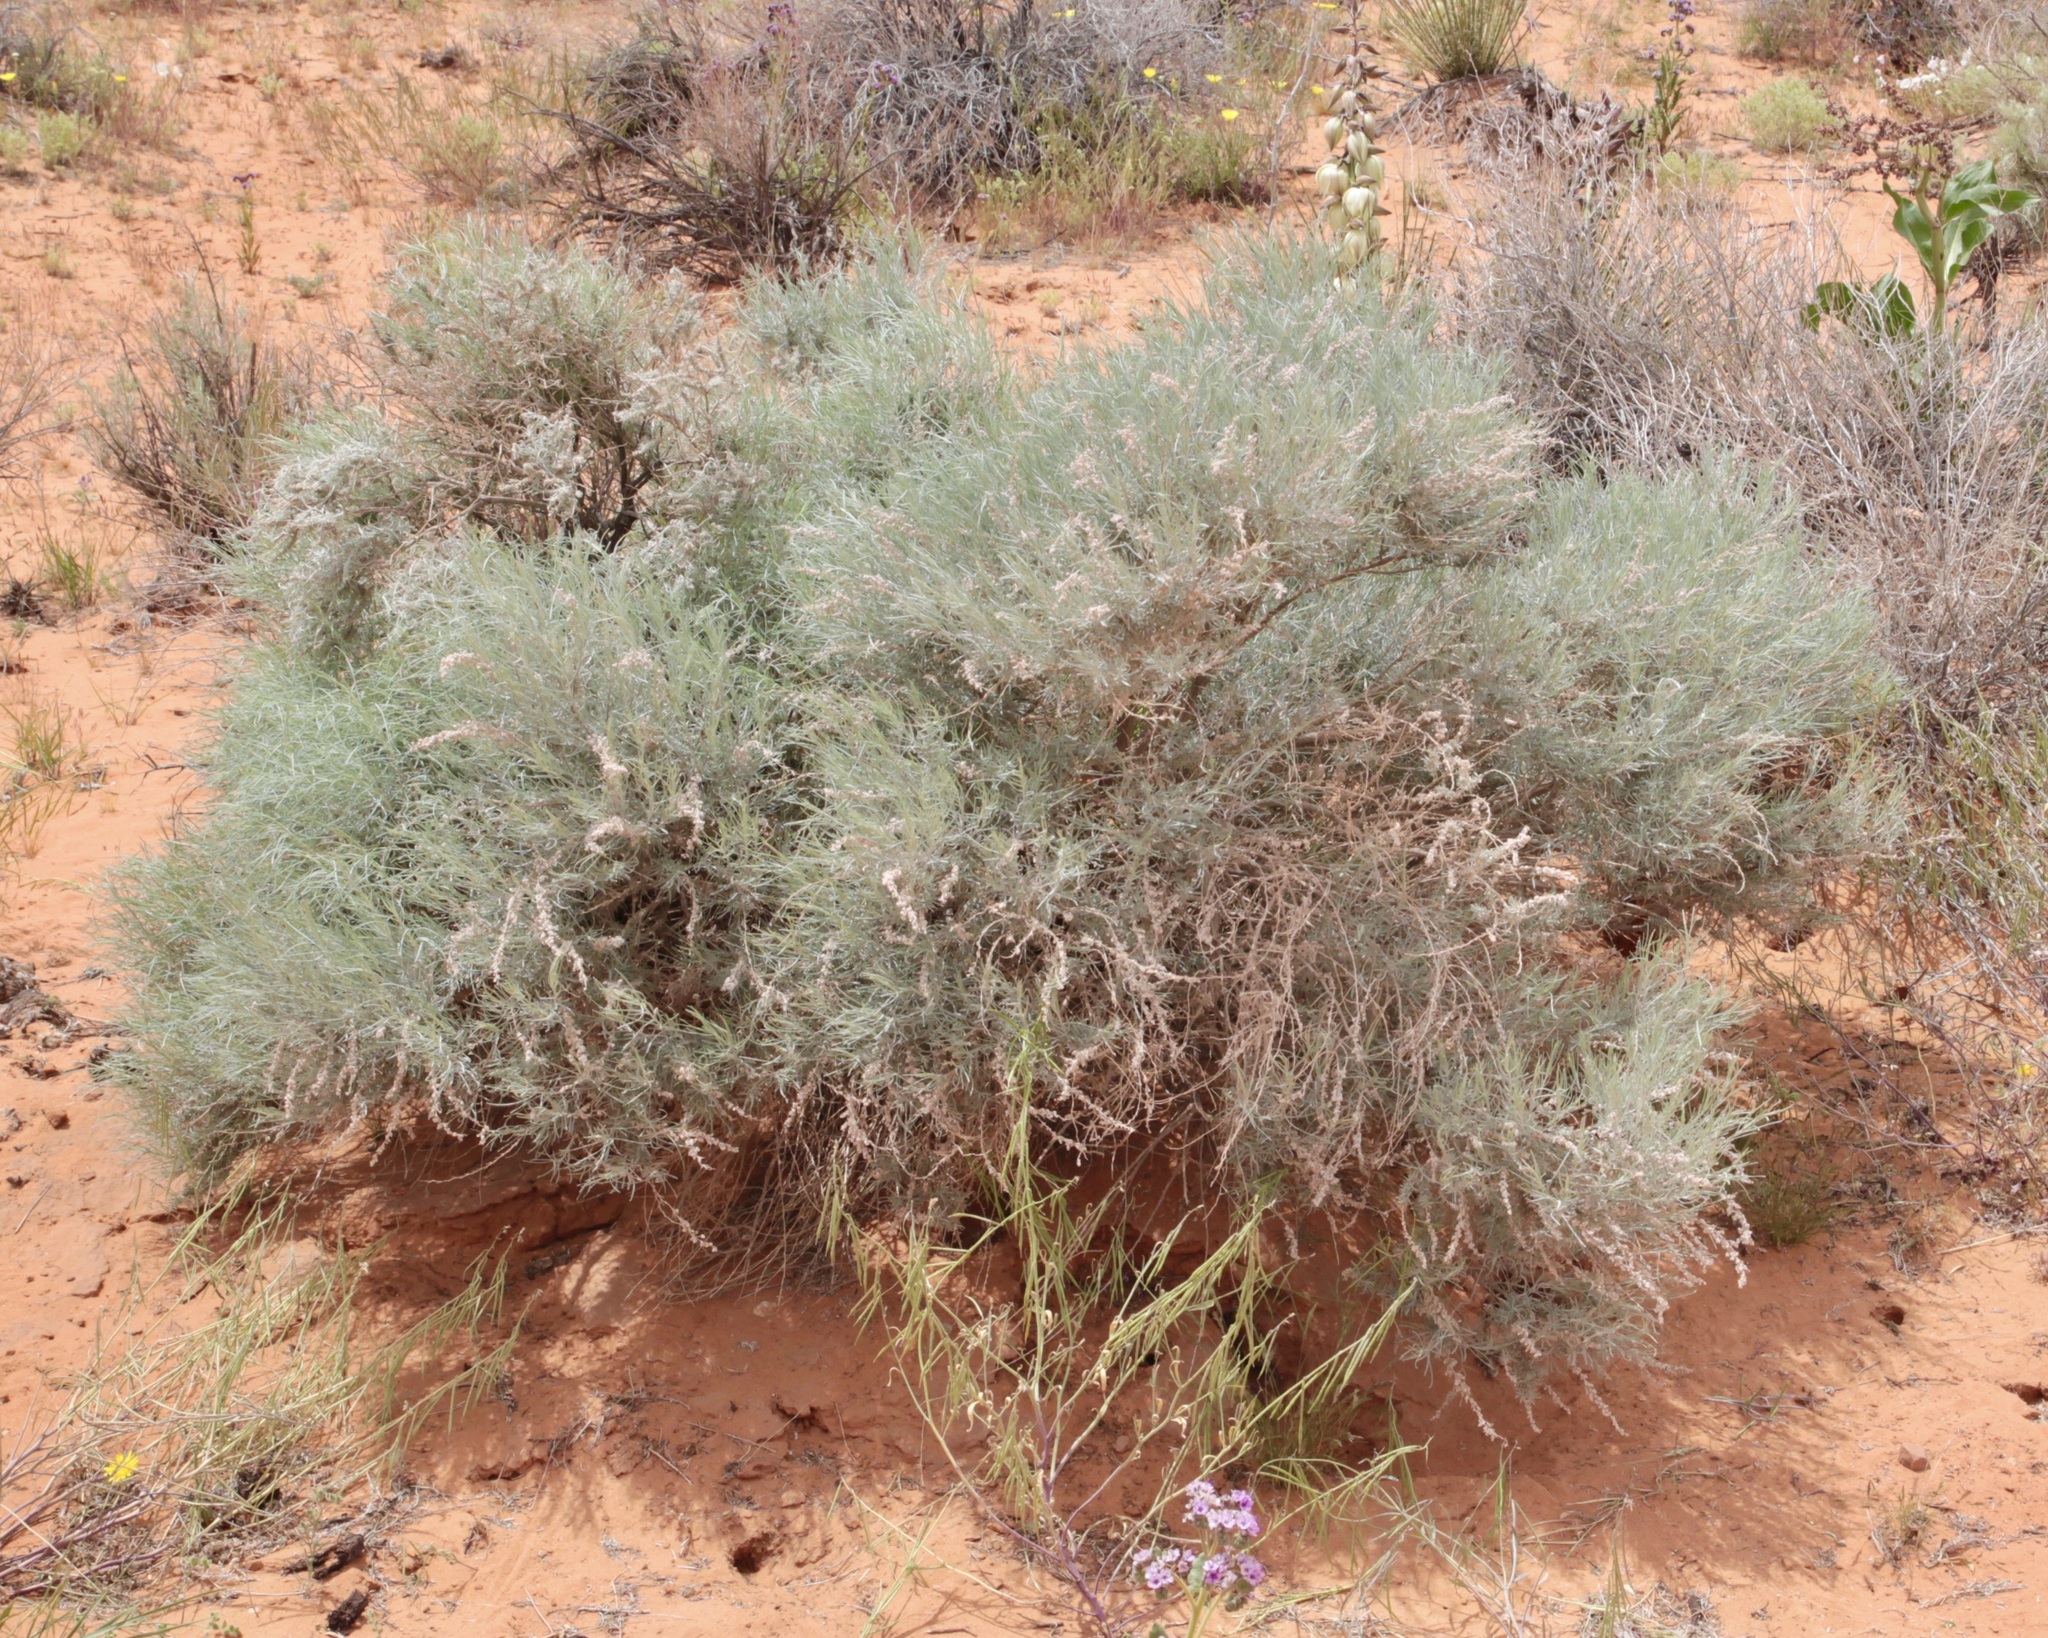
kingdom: Plantae
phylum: Tracheophyta
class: Magnoliopsida
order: Asterales
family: Asteraceae
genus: Artemisia
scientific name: Artemisia filifolia
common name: Sand-sage
